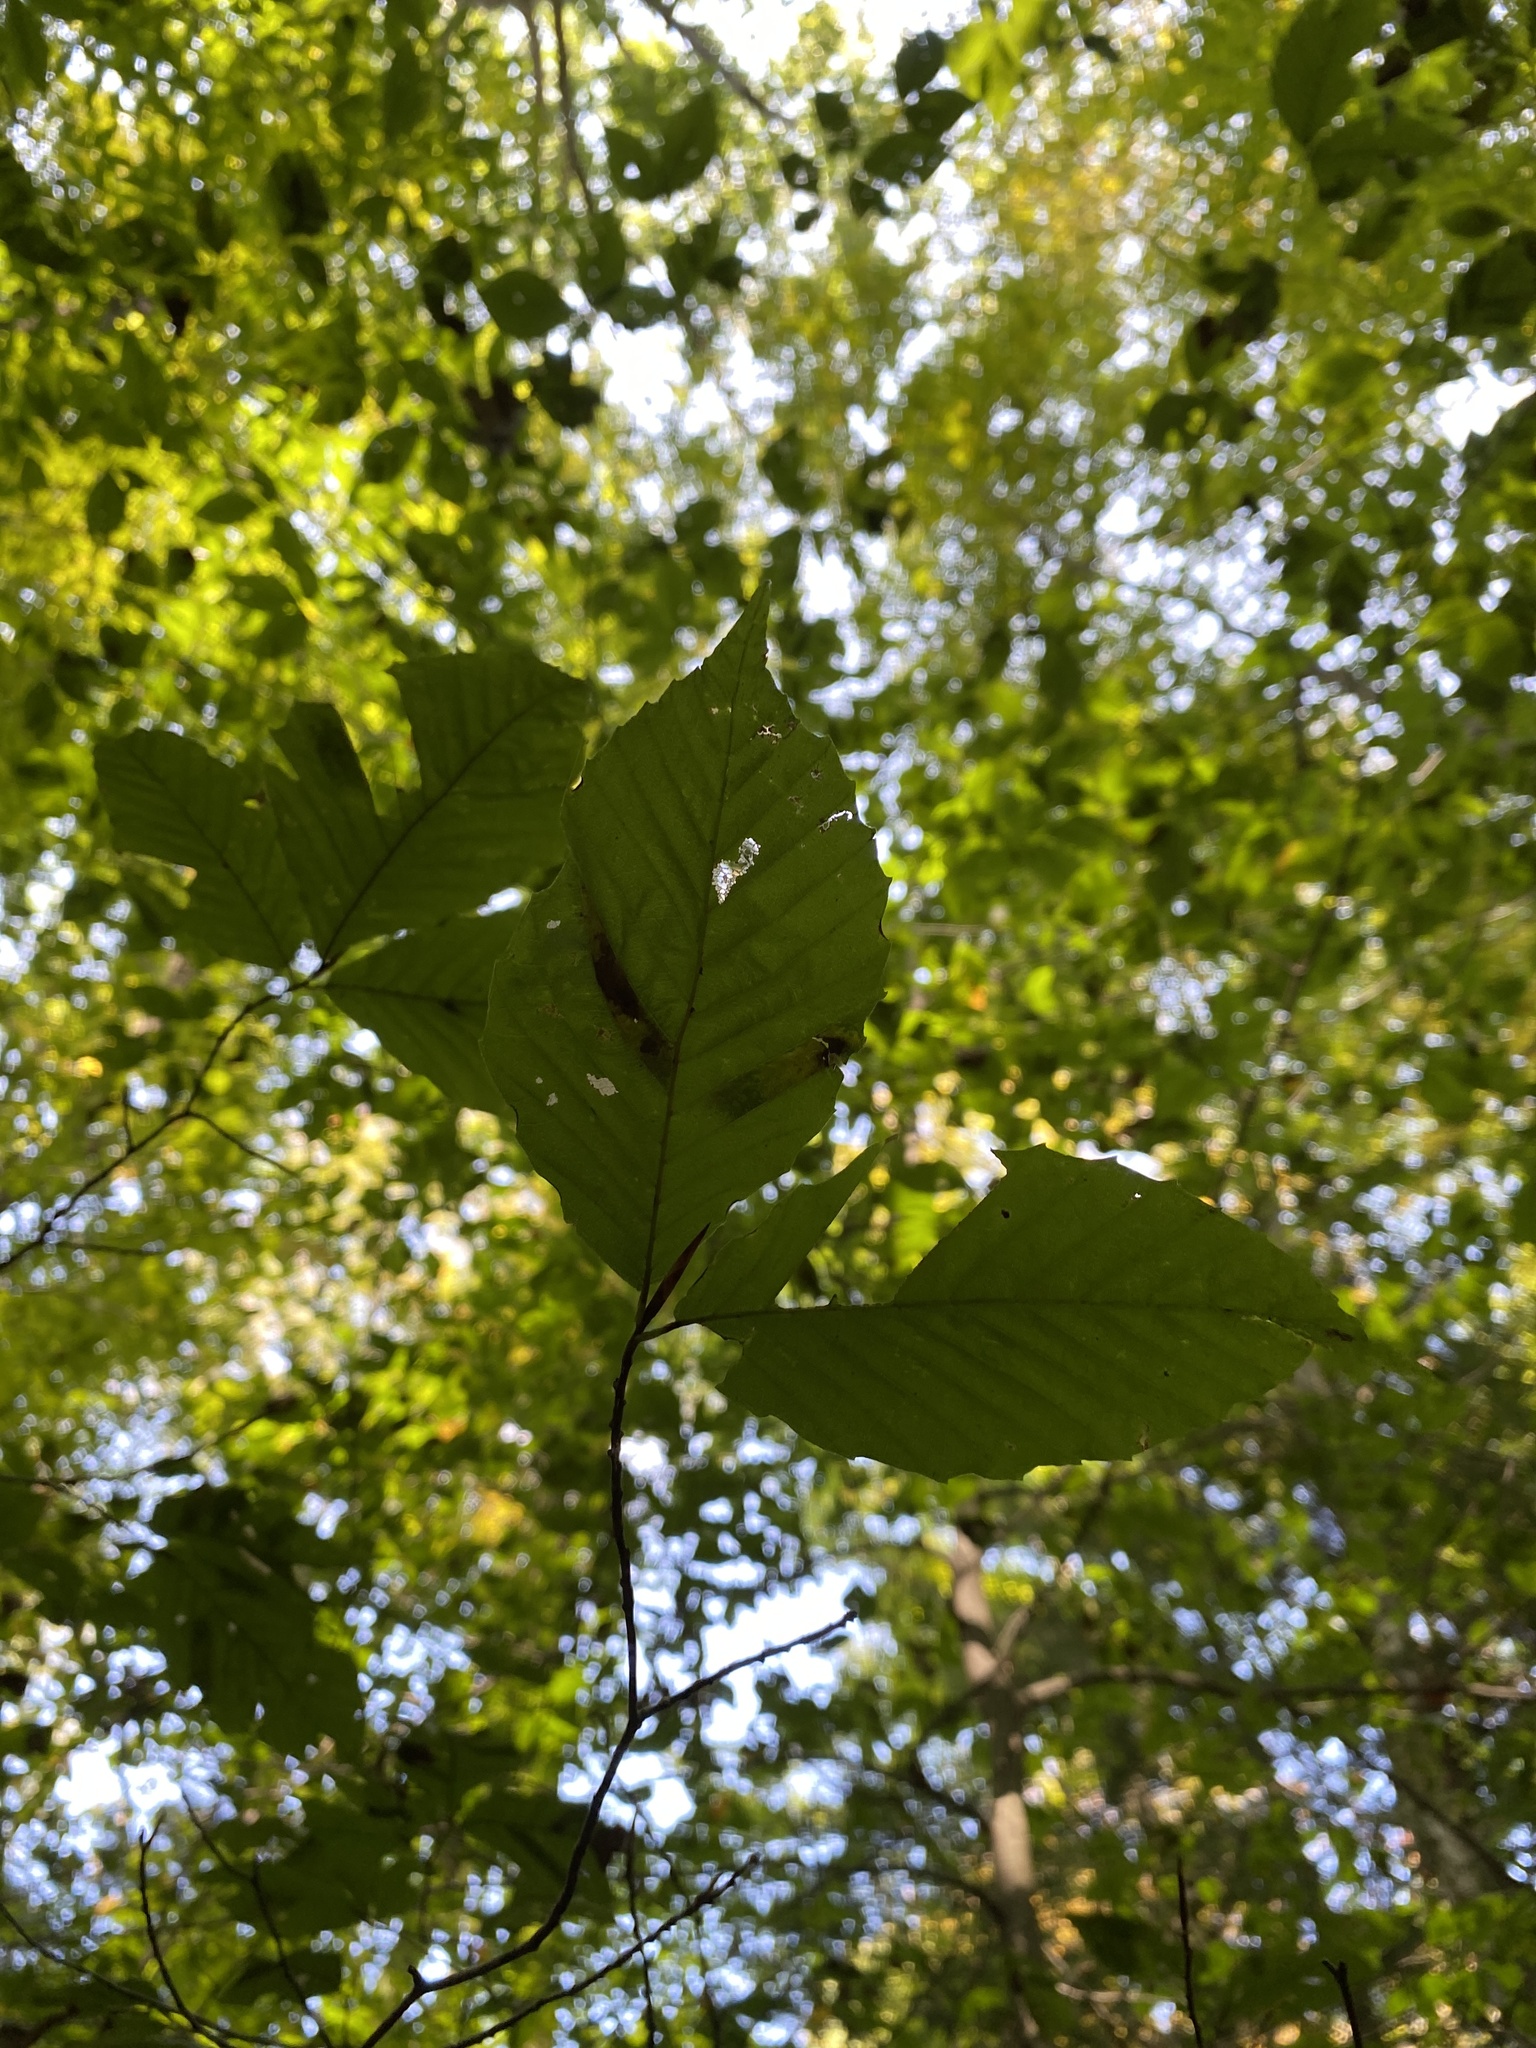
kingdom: Plantae
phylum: Tracheophyta
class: Magnoliopsida
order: Fagales
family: Fagaceae
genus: Fagus
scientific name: Fagus grandifolia
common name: American beech
